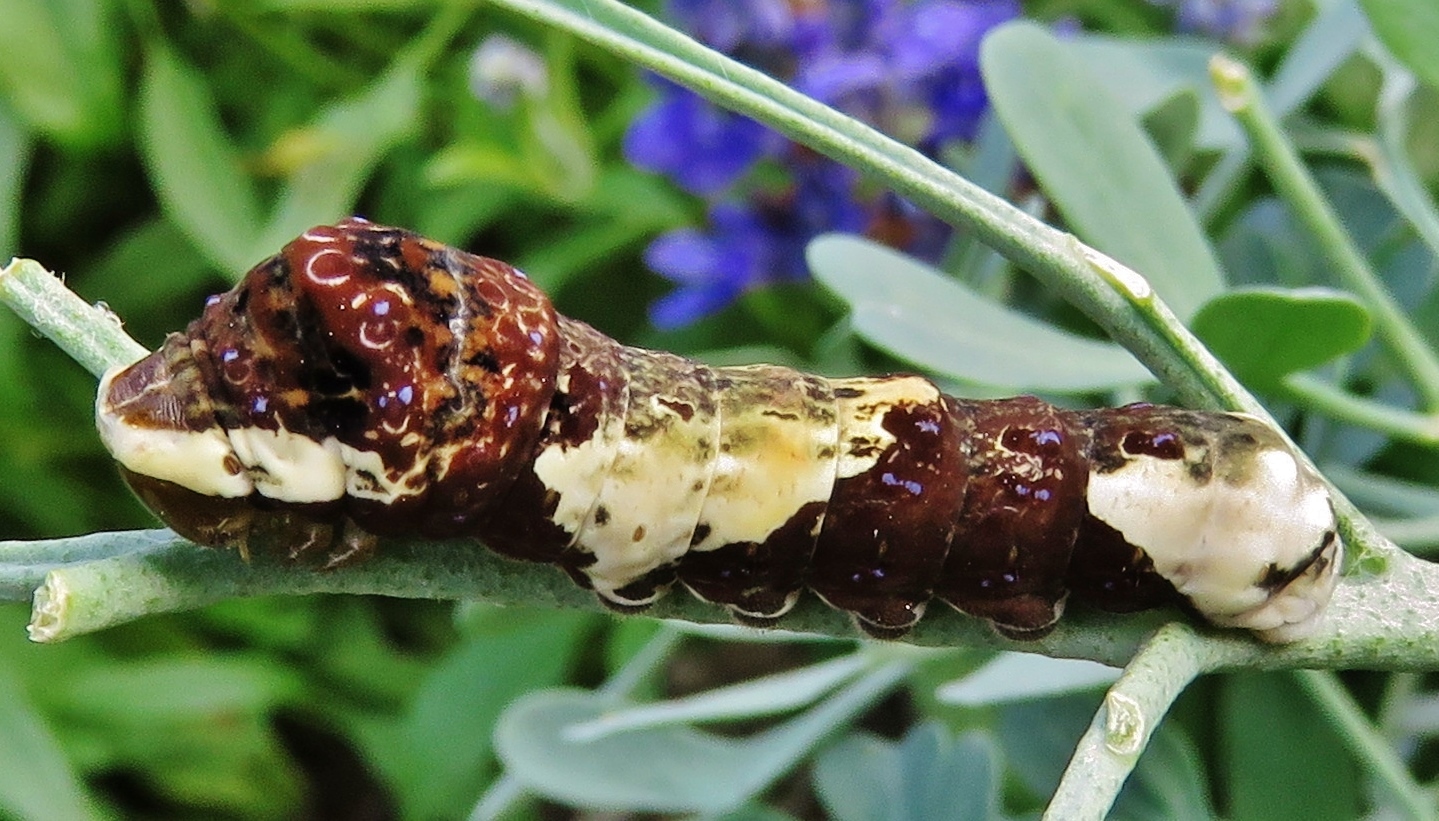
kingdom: Animalia
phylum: Arthropoda
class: Insecta
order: Lepidoptera
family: Papilionidae
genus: Papilio
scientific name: Papilio cresphontes
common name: Giant swallowtail
